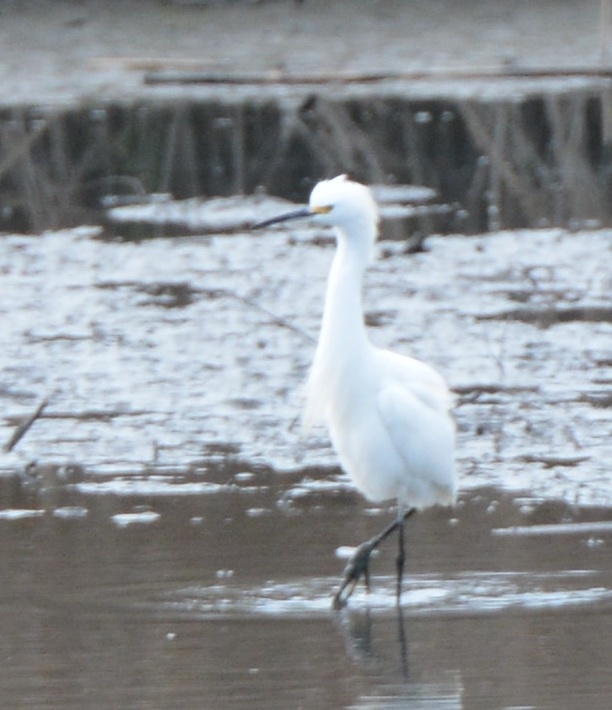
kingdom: Animalia
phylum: Chordata
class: Aves
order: Pelecaniformes
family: Ardeidae
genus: Egretta
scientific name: Egretta thula
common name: Snowy egret
